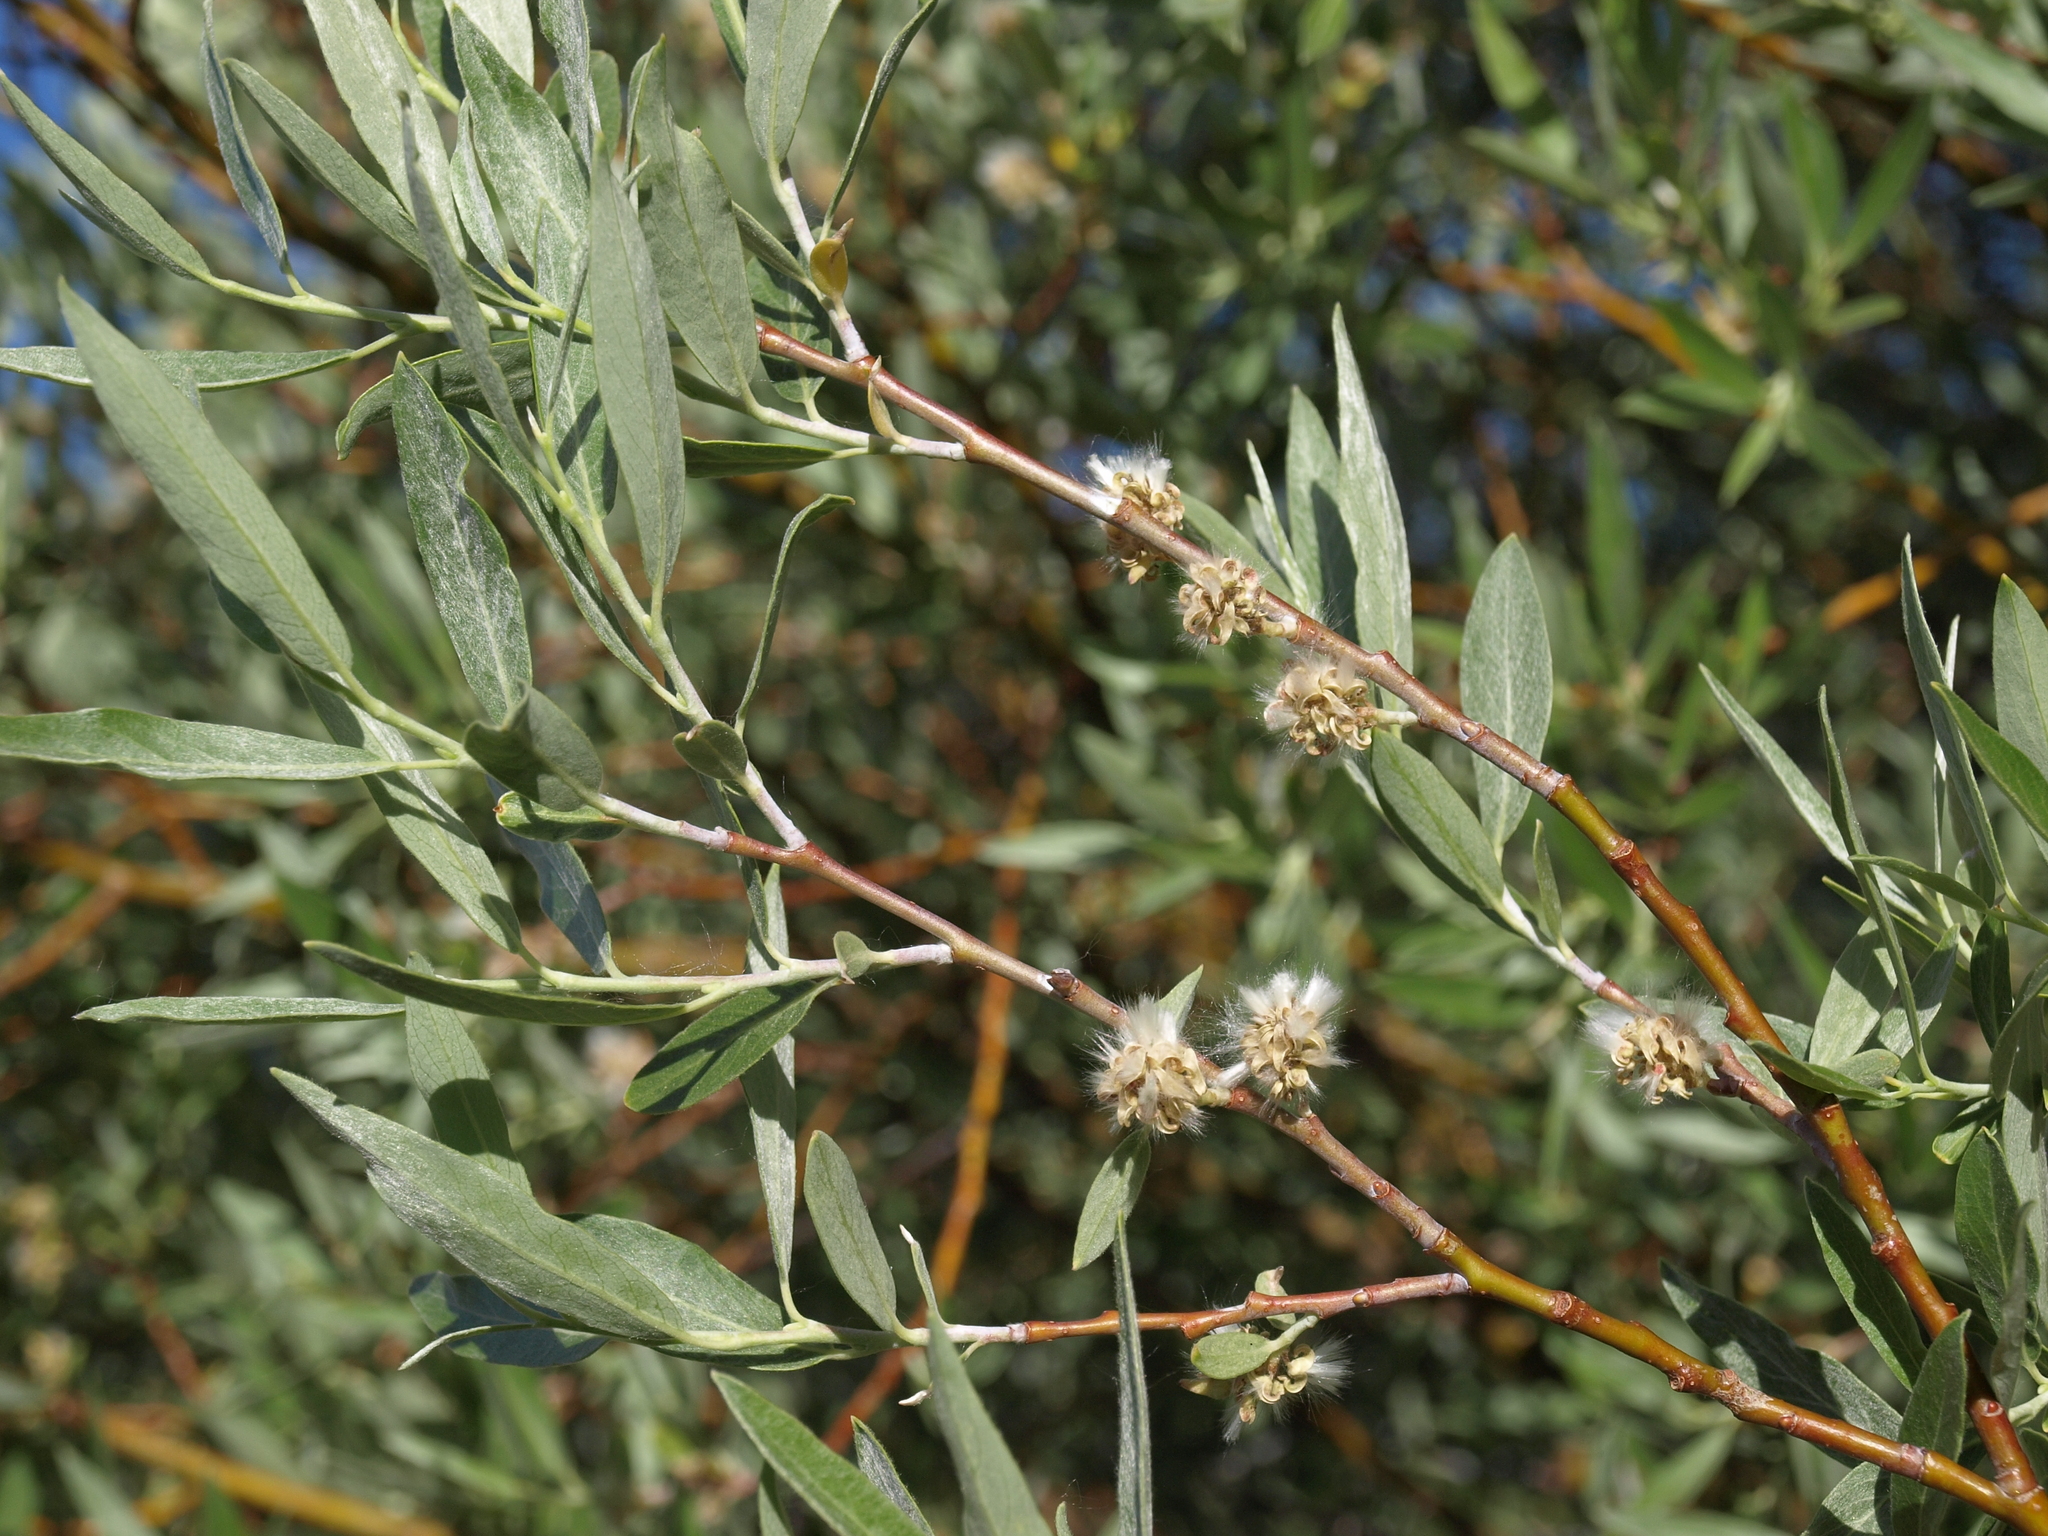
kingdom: Plantae
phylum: Tracheophyta
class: Magnoliopsida
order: Malpighiales
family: Salicaceae
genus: Salix
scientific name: Salix geyeriana
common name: Geyer's willow
